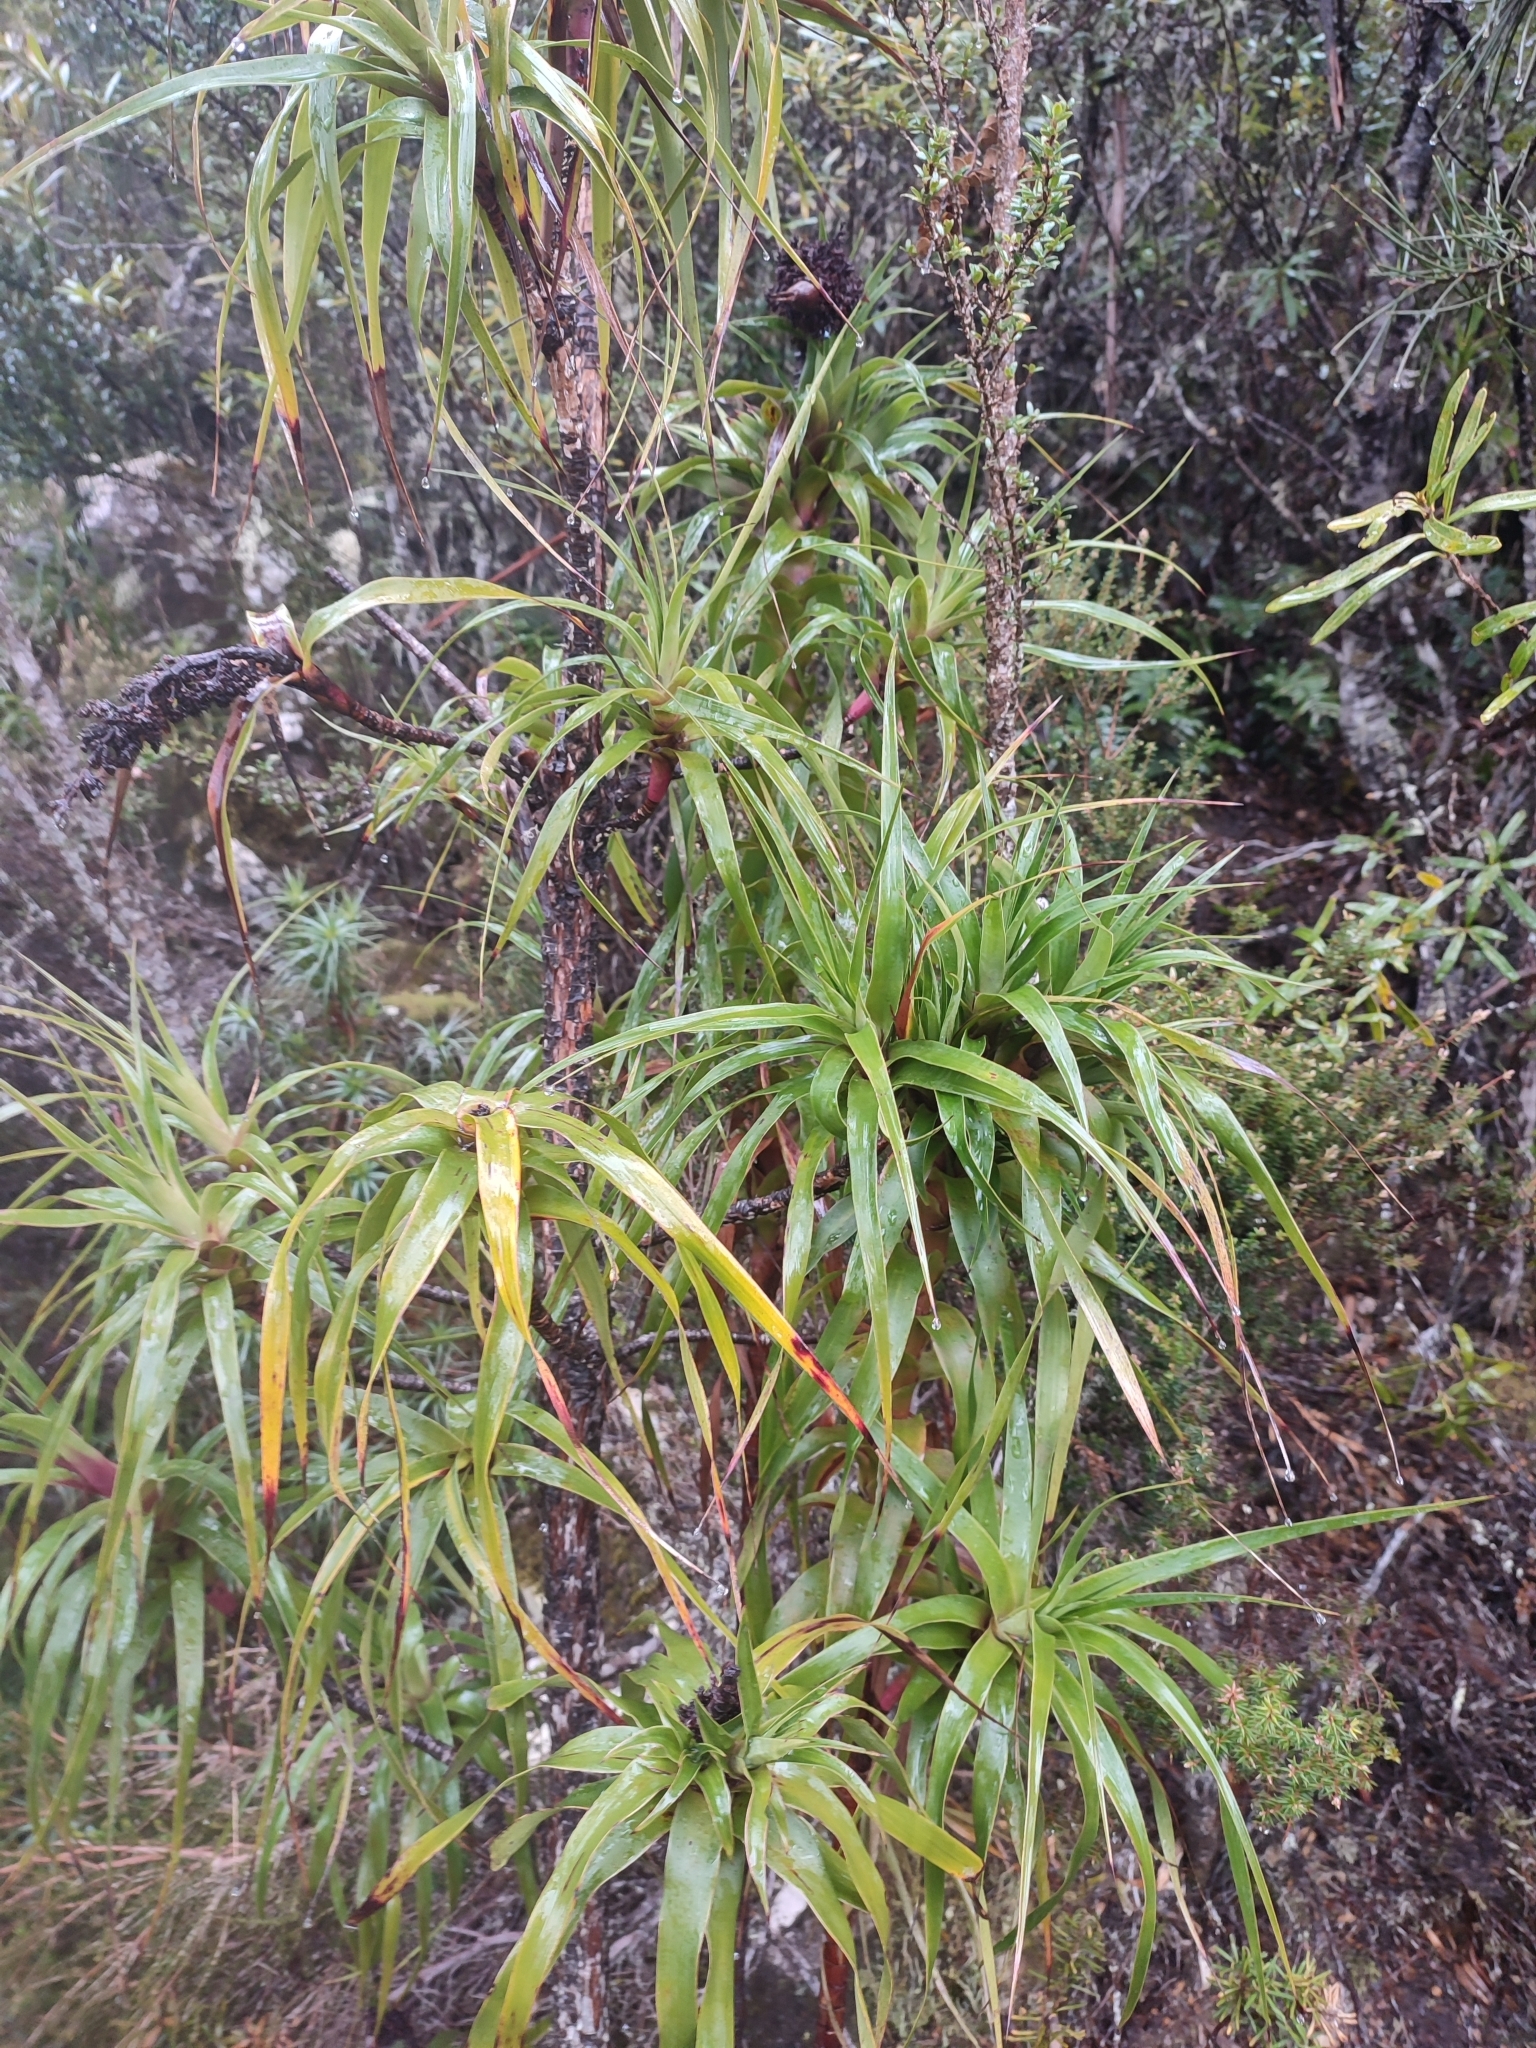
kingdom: Plantae
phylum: Tracheophyta
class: Magnoliopsida
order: Ericales
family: Ericaceae
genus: Dracophyllum
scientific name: Dracophyllum desgrazii
